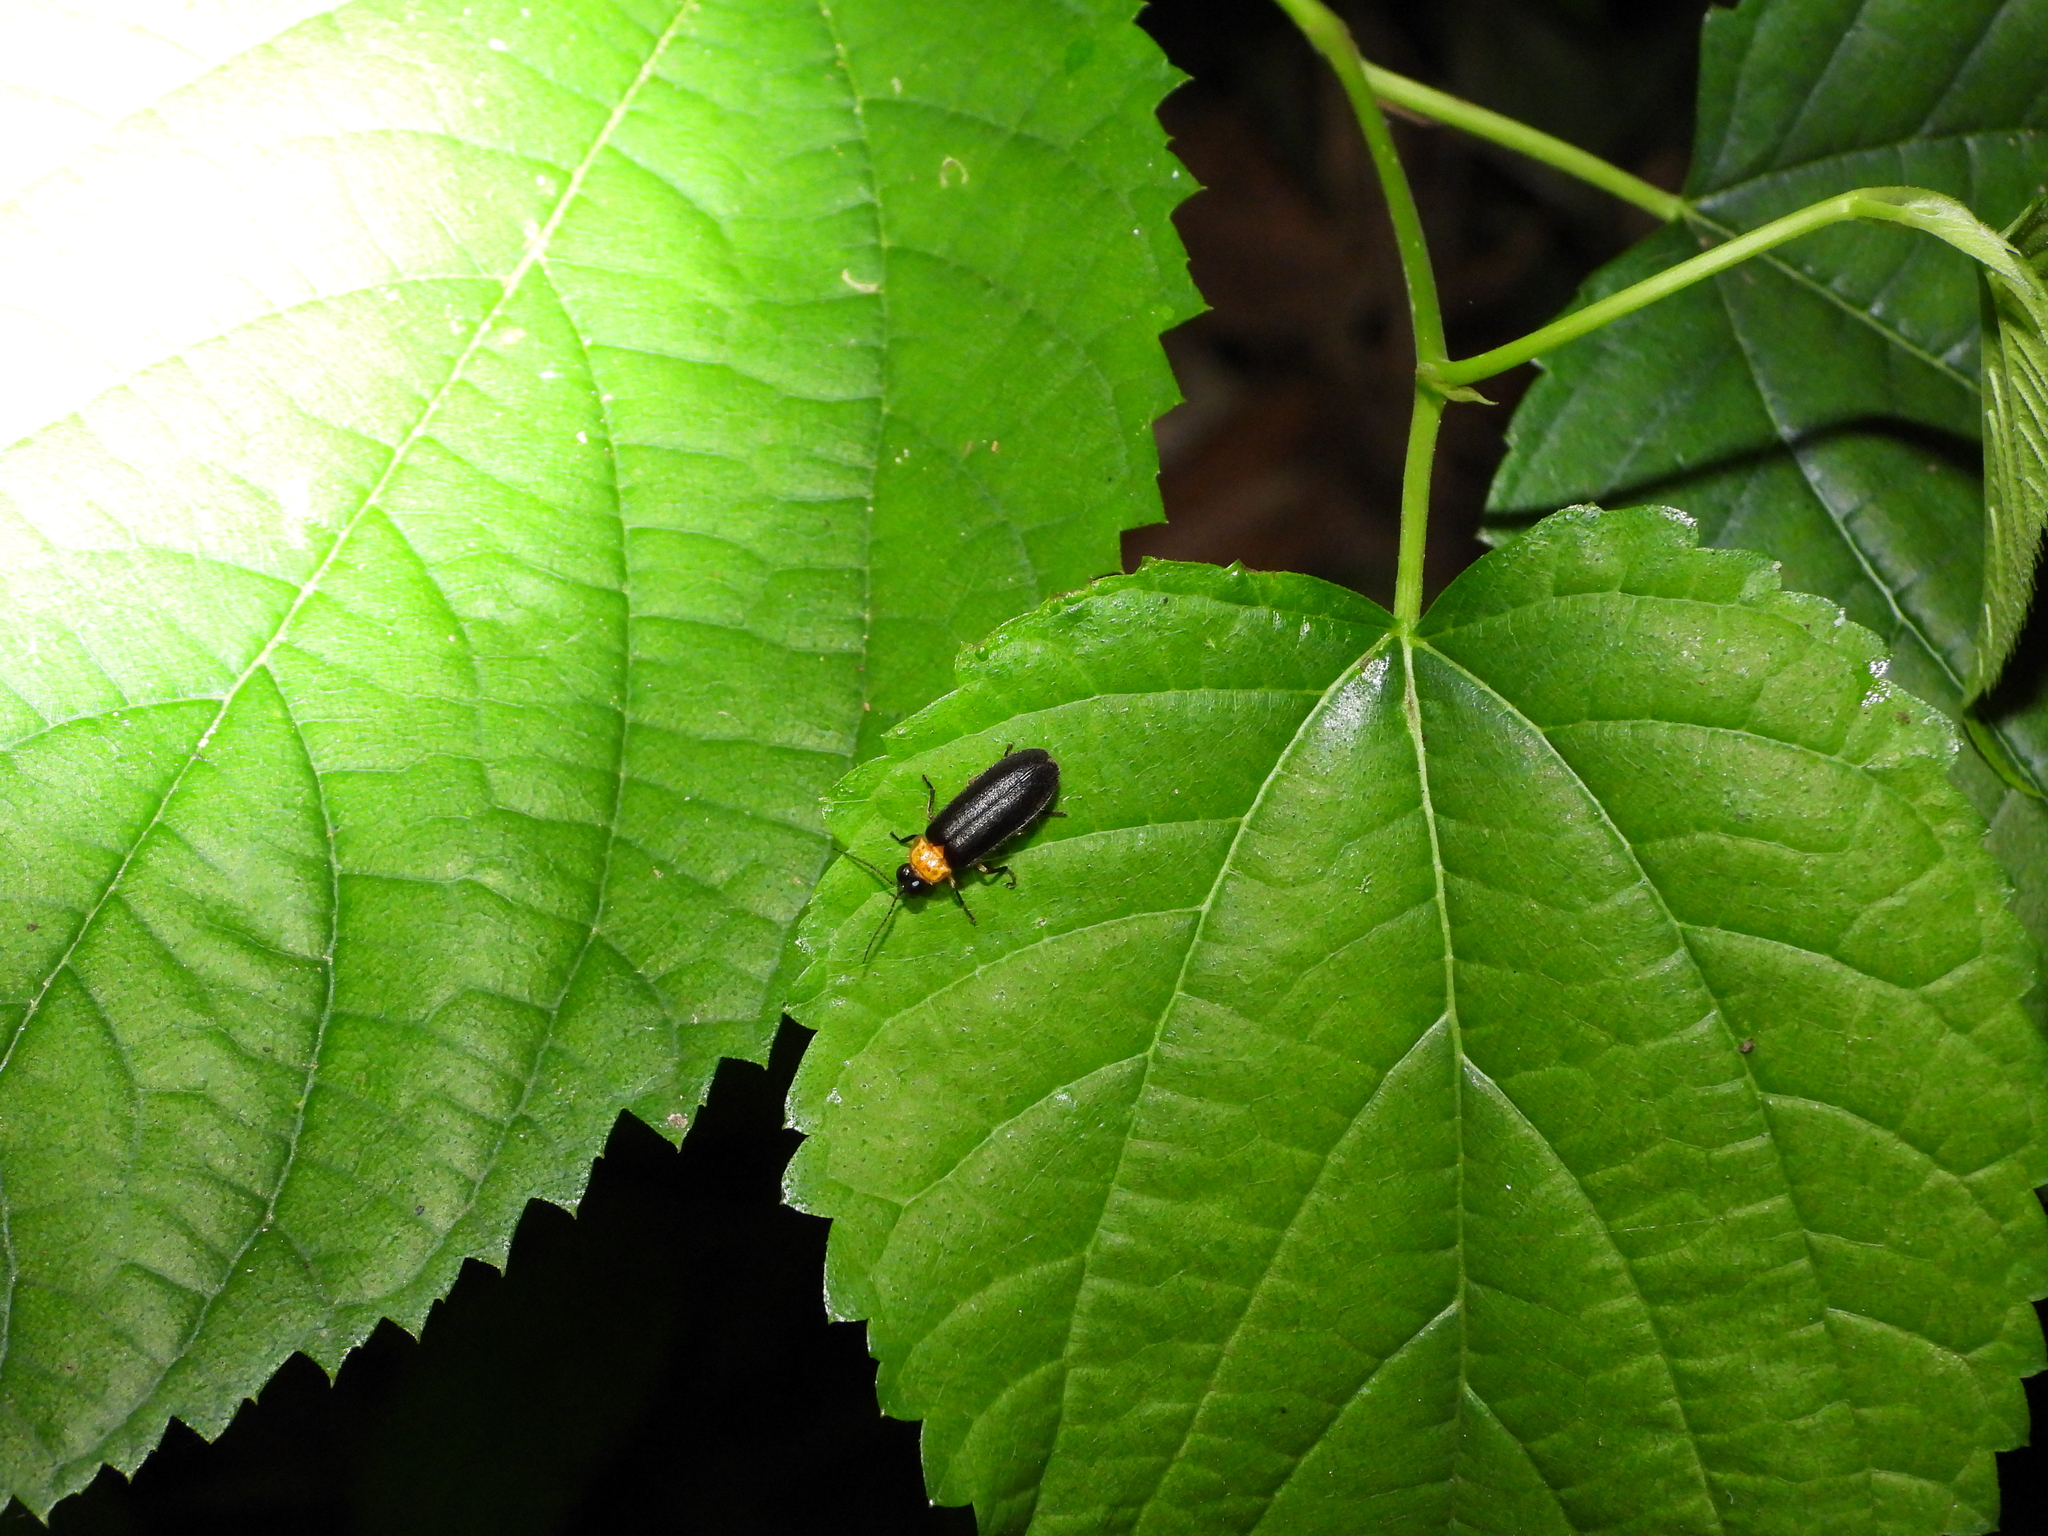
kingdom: Animalia
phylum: Arthropoda
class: Insecta
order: Coleoptera
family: Lampyridae
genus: Abscondita
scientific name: Abscondita cerata
